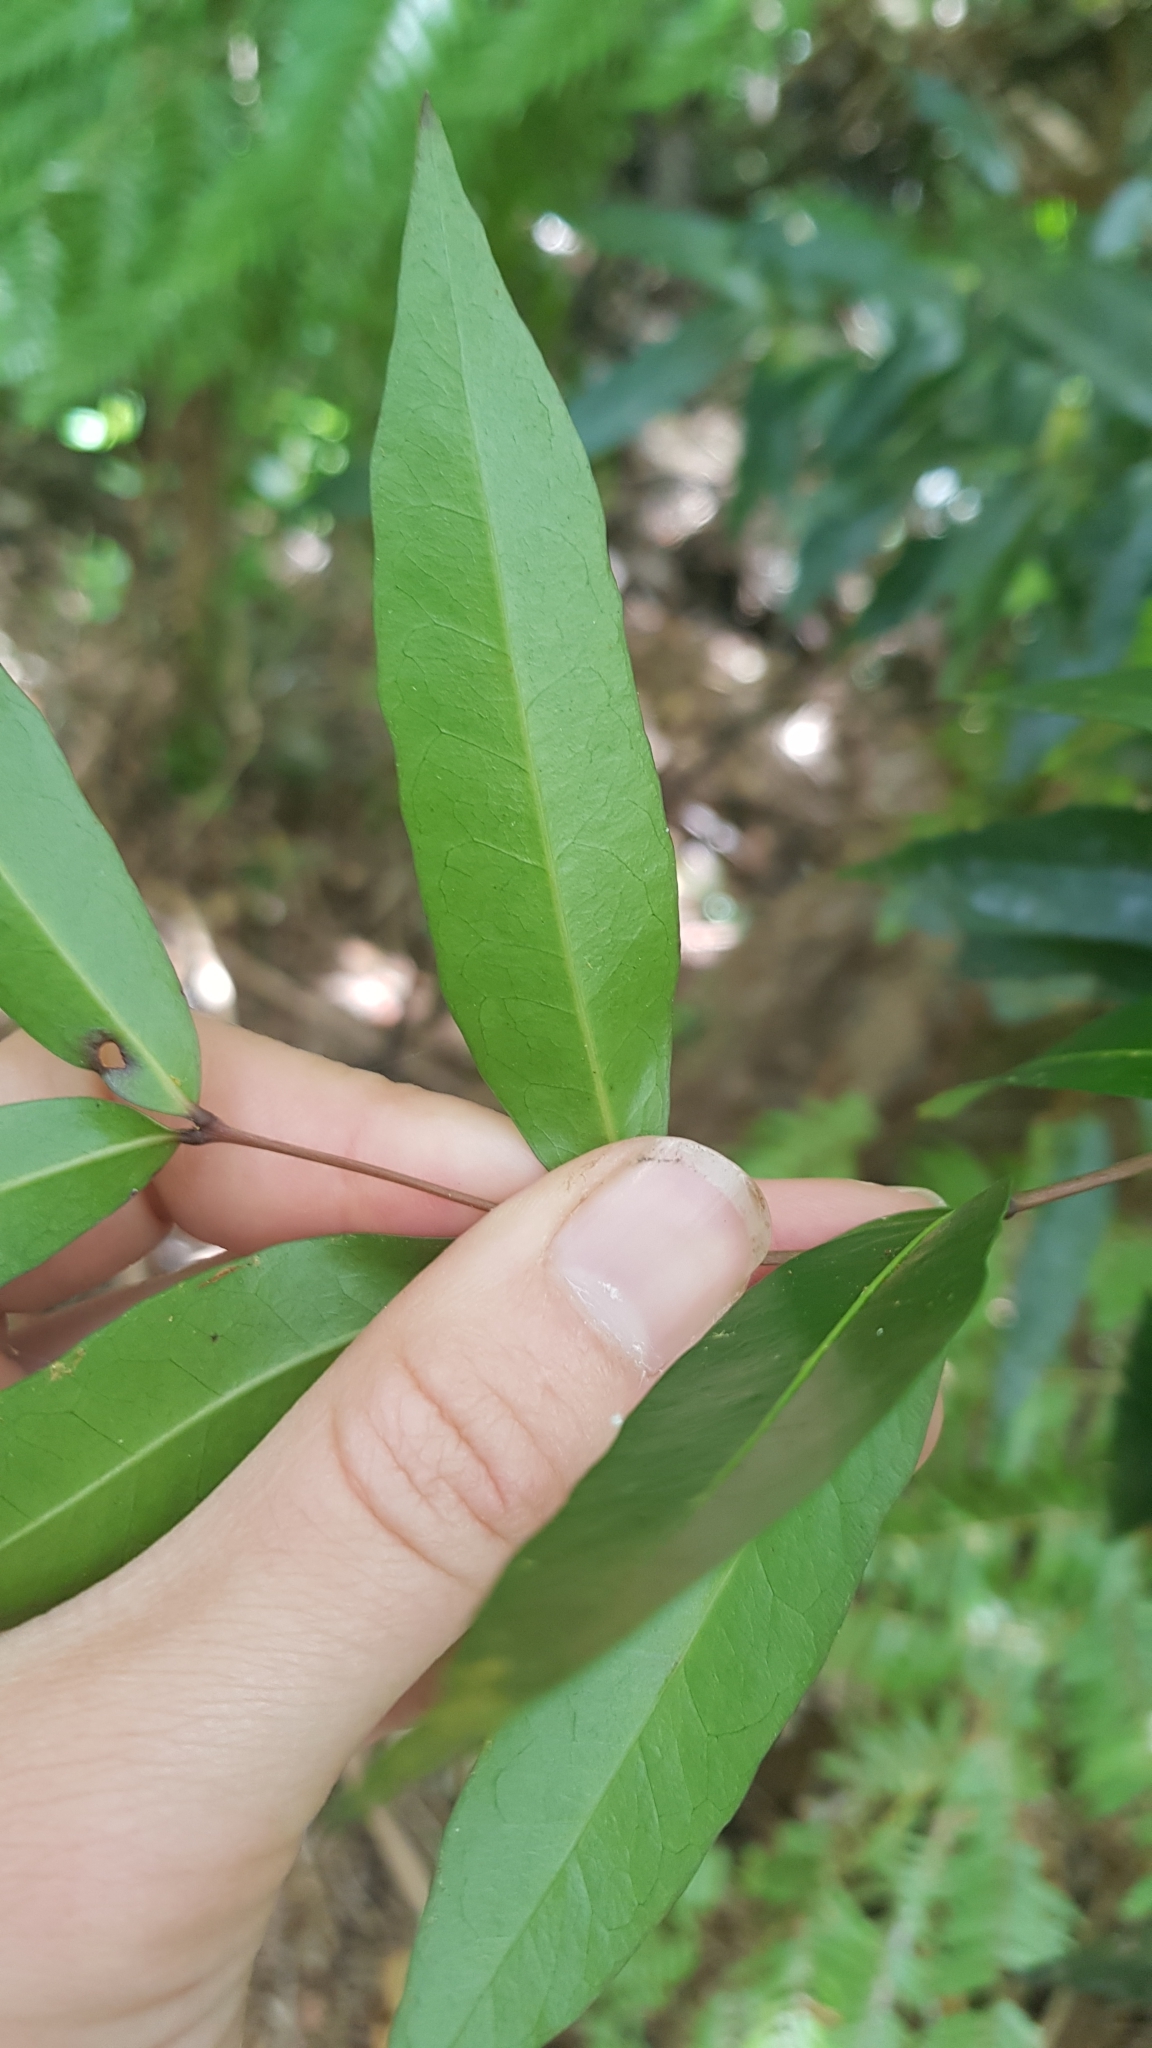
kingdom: Plantae
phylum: Tracheophyta
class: Magnoliopsida
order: Santalales
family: Nanodeaceae
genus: Mida
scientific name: Mida salicifolia
